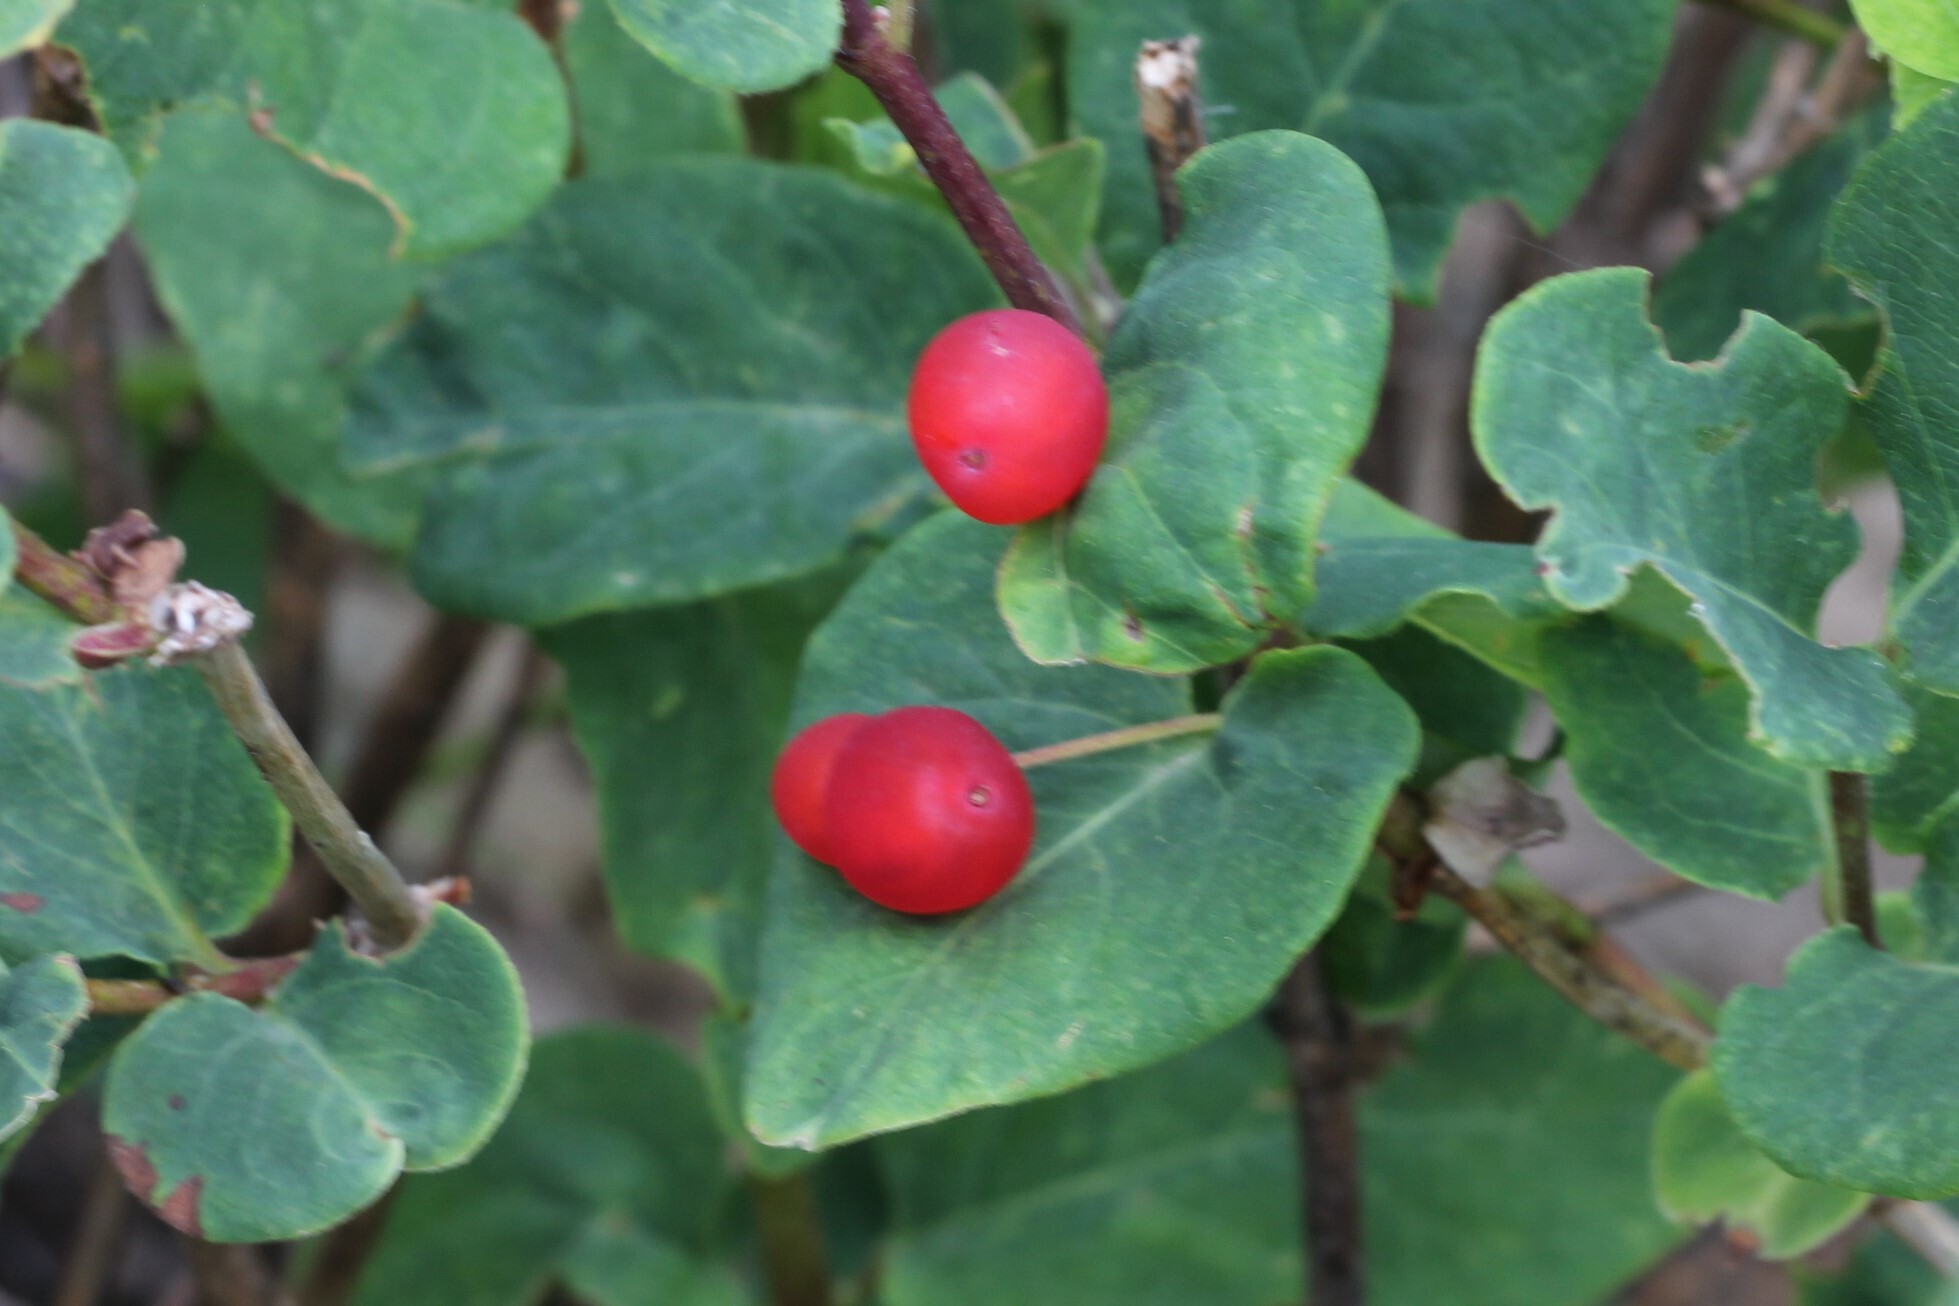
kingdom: Plantae
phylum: Tracheophyta
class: Magnoliopsida
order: Dipsacales
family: Caprifoliaceae
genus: Lonicera
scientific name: Lonicera utahensis
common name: Utah honeysuckle
